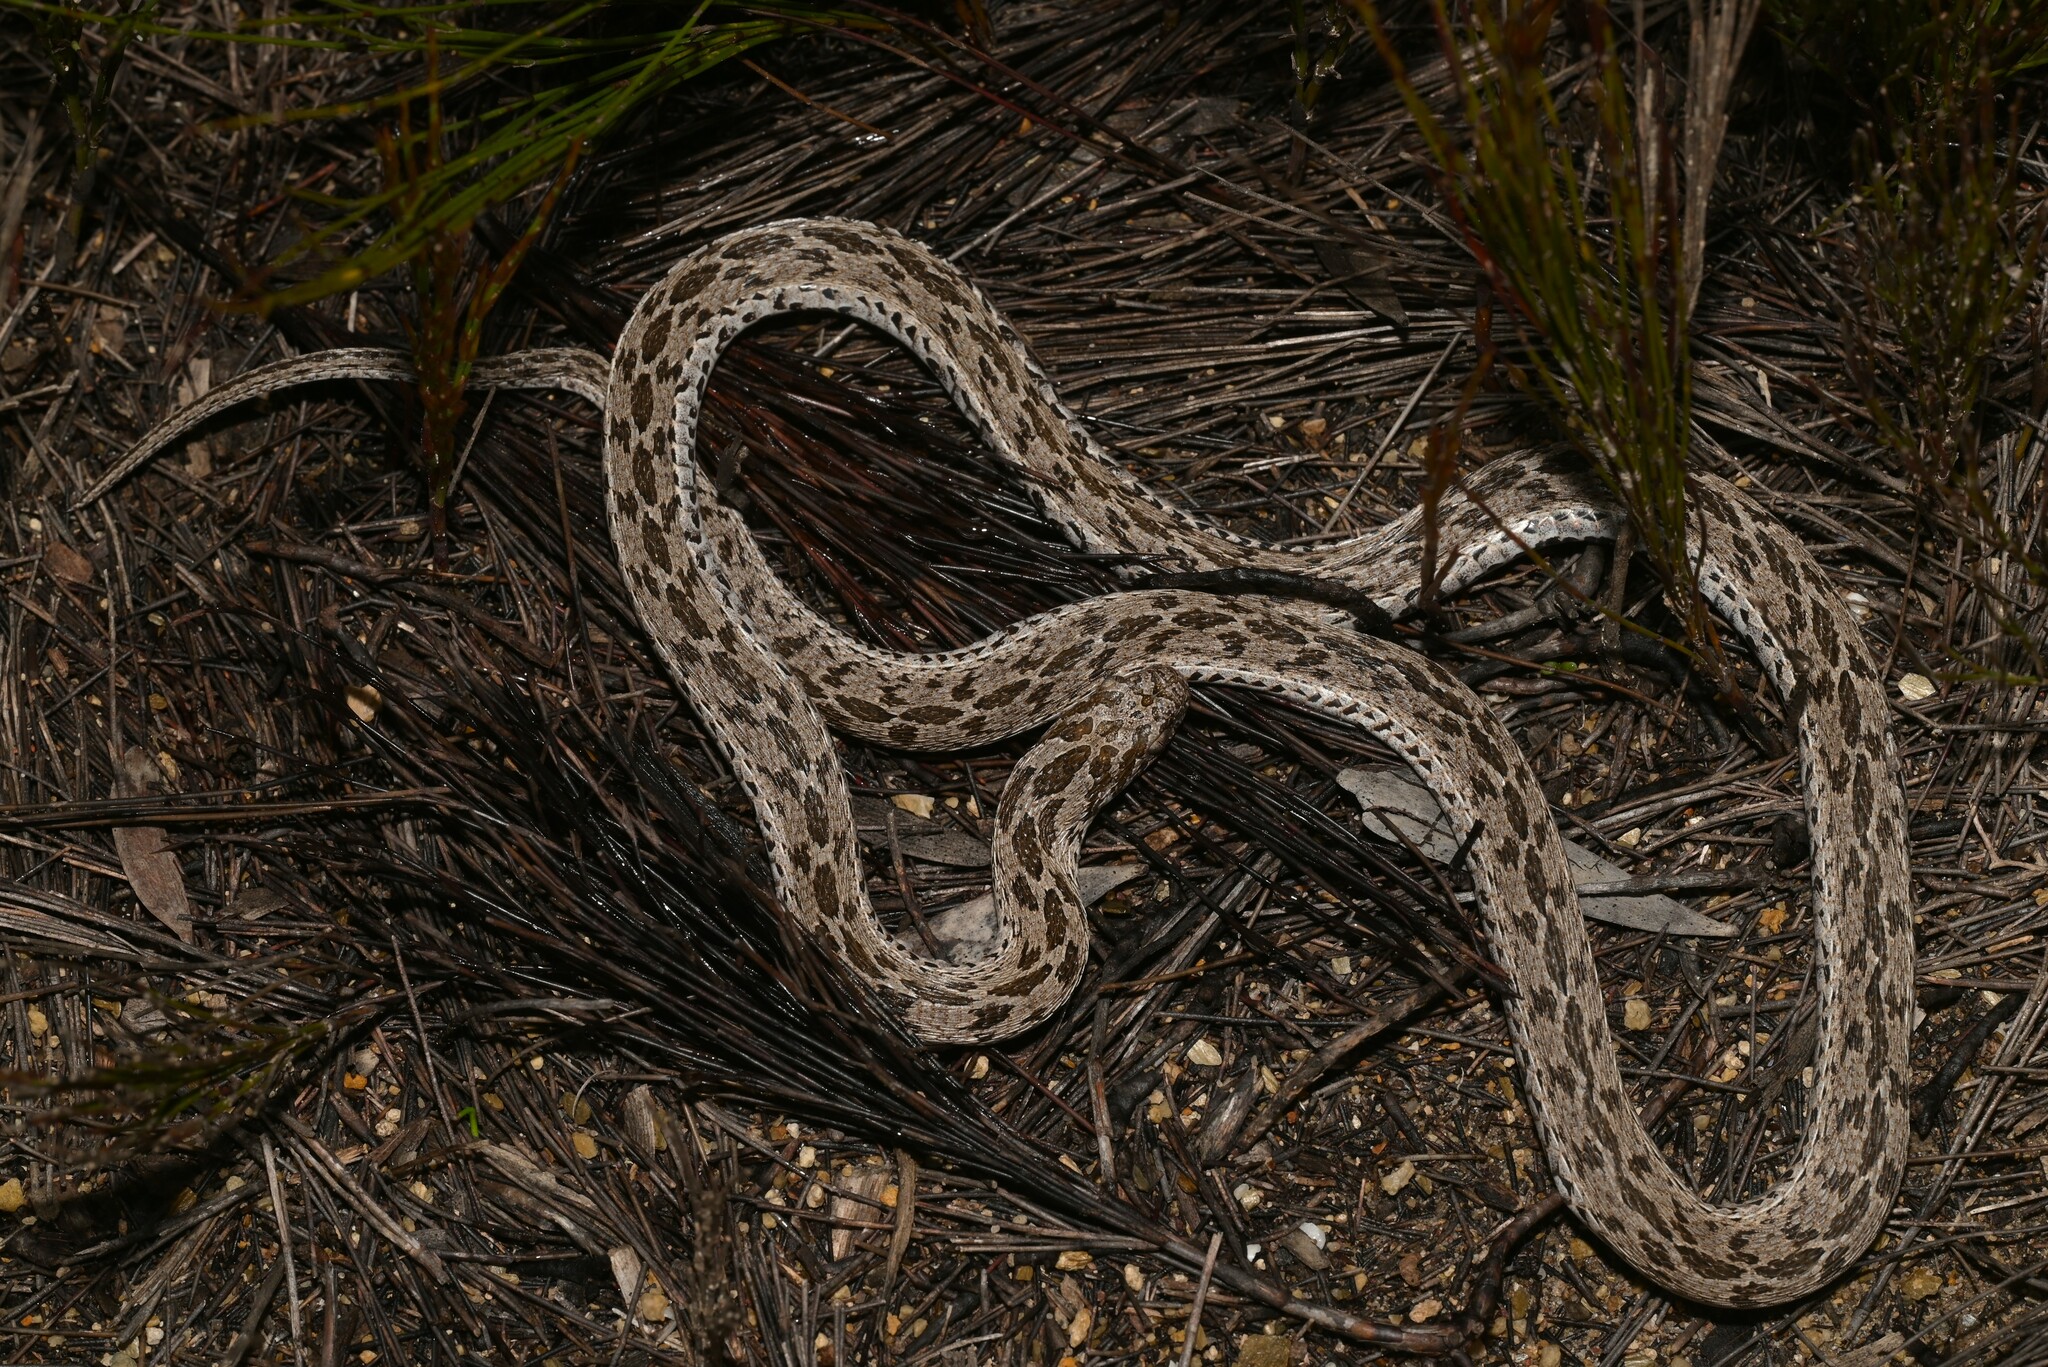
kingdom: Animalia
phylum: Chordata
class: Squamata
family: Colubridae
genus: Dasypeltis
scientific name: Dasypeltis scabra
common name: Common egg eater
